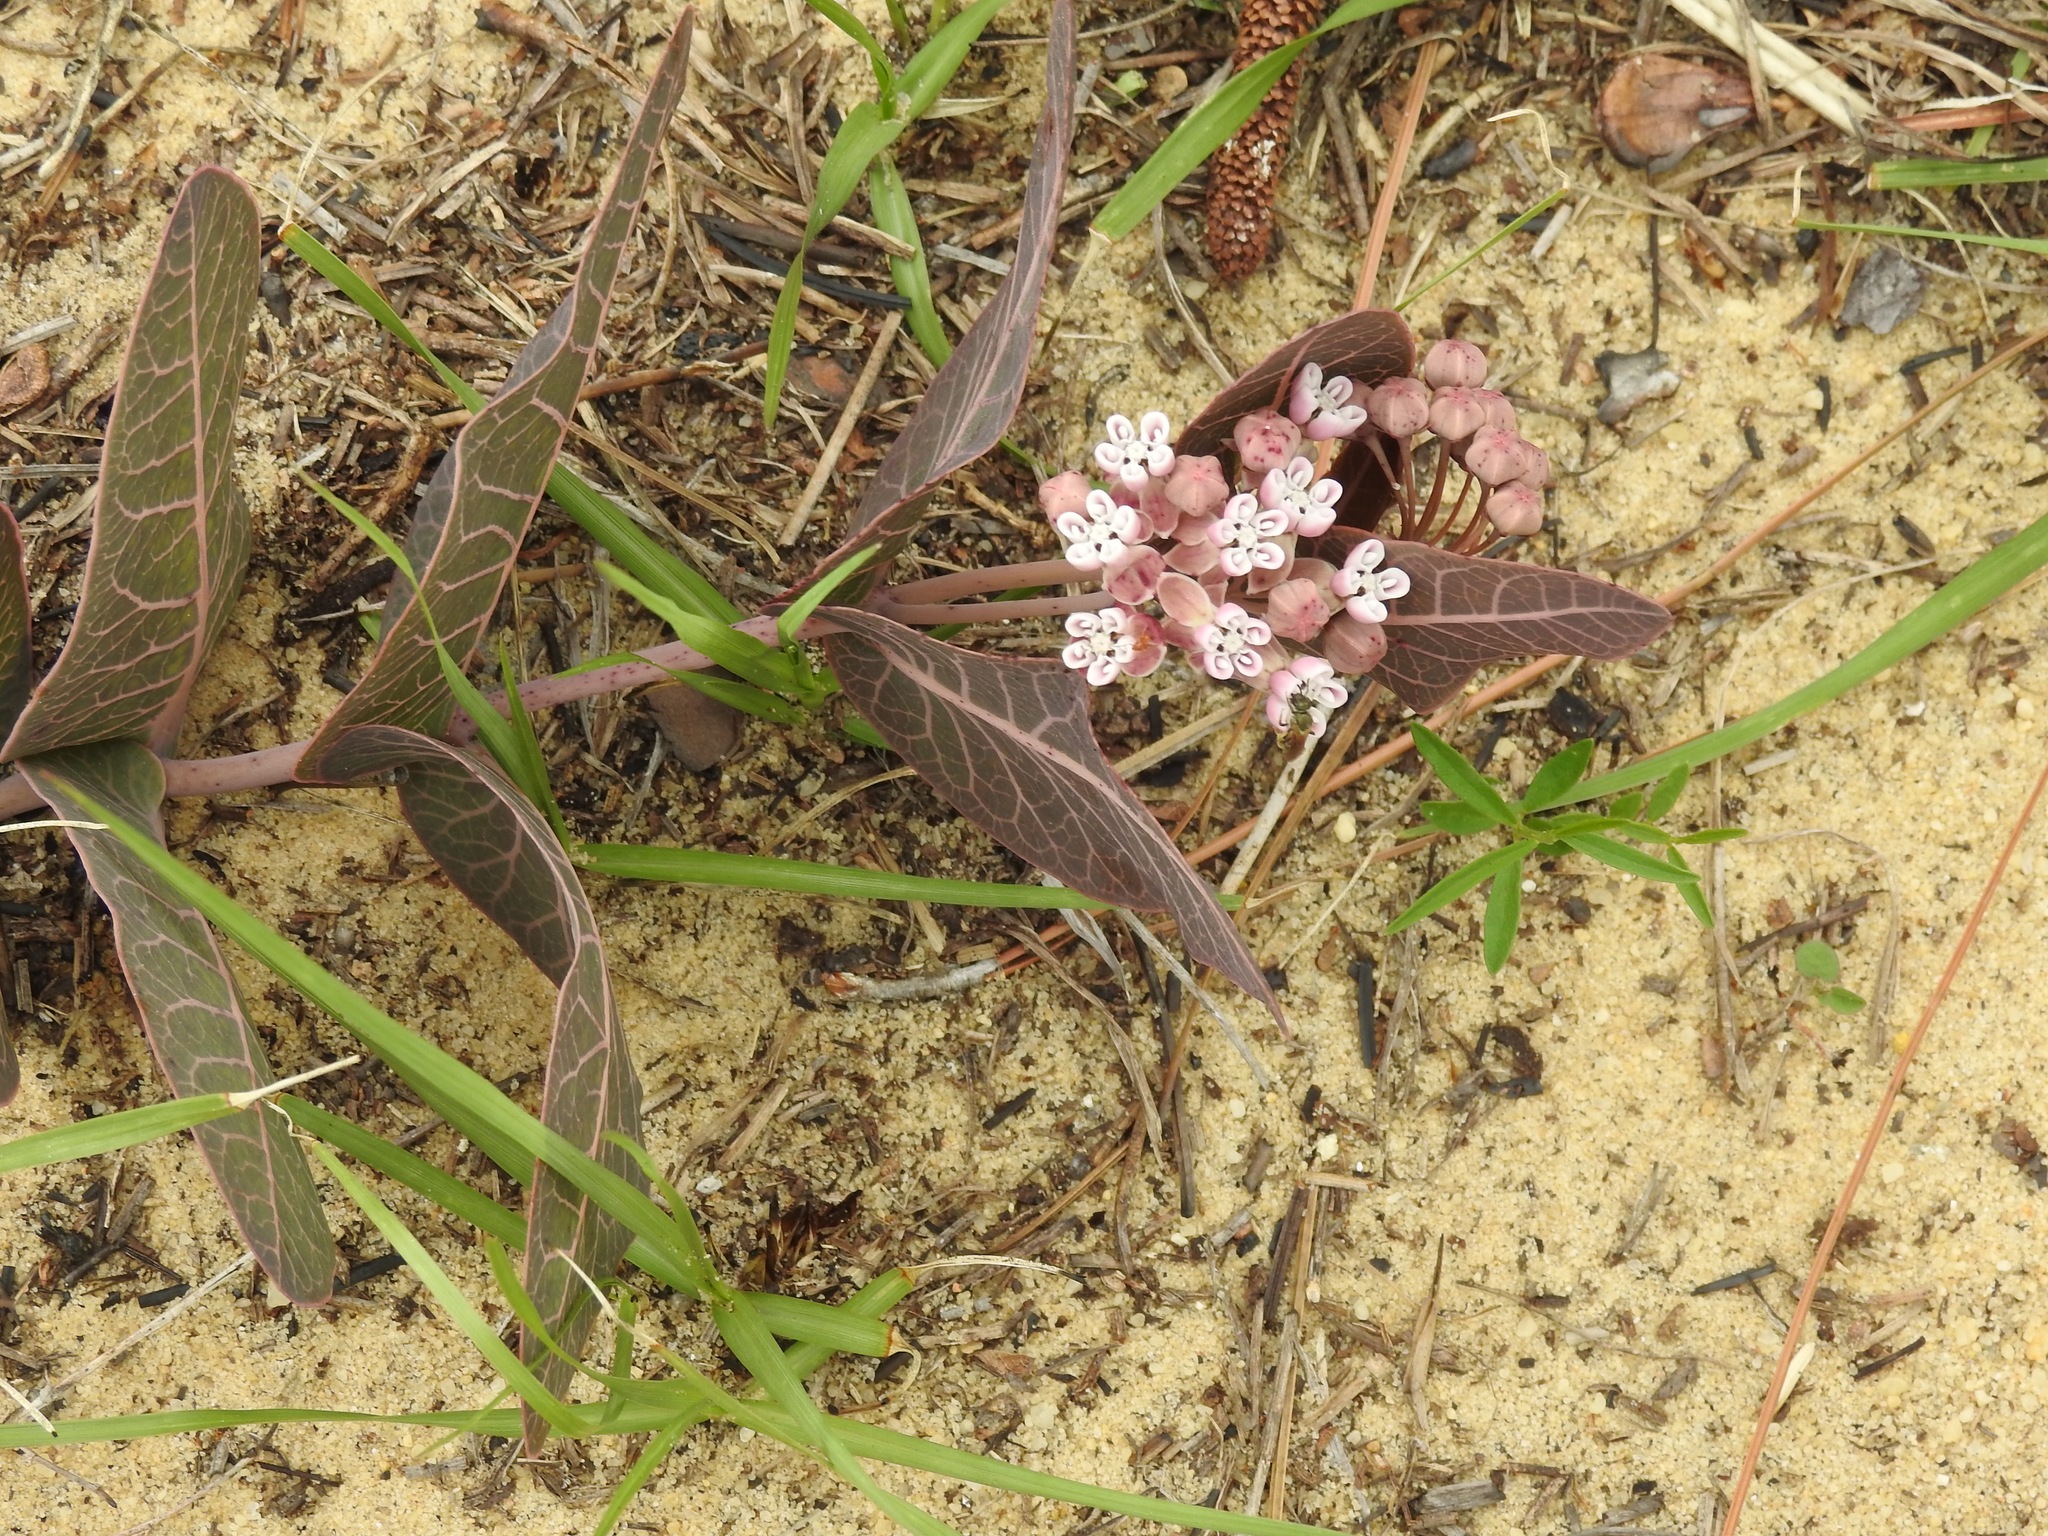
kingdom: Plantae
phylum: Tracheophyta
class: Magnoliopsida
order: Gentianales
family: Apocynaceae
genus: Asclepias
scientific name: Asclepias humistrata
